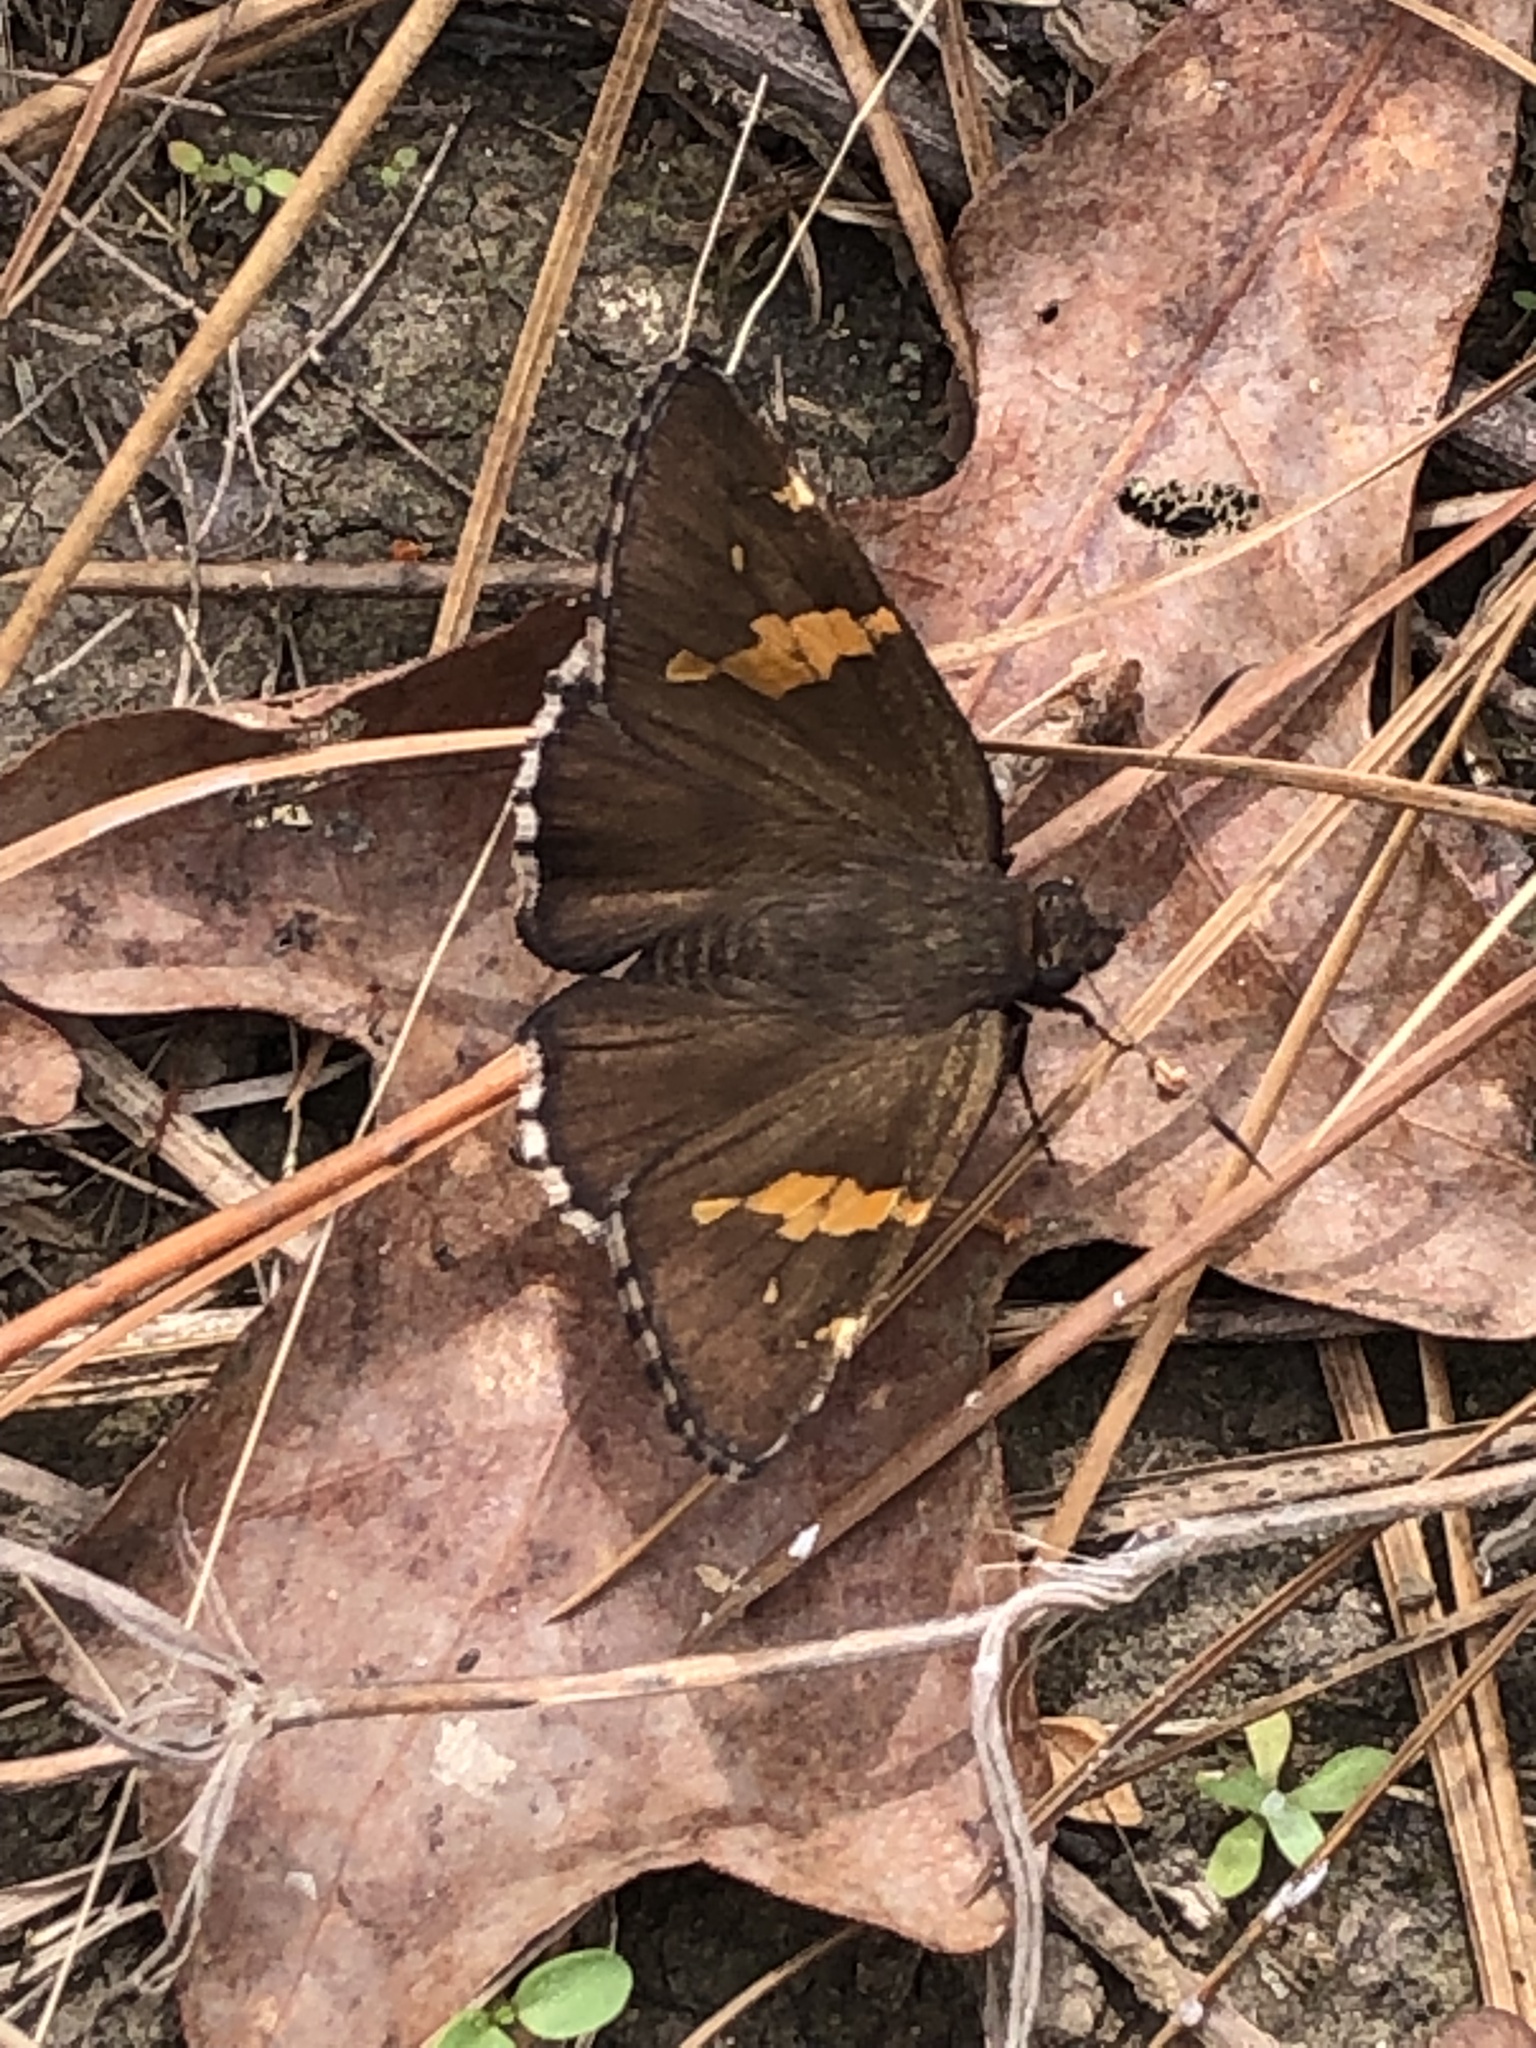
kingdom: Animalia
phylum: Arthropoda
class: Insecta
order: Lepidoptera
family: Hesperiidae
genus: Thorybes
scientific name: Thorybes lyciades
